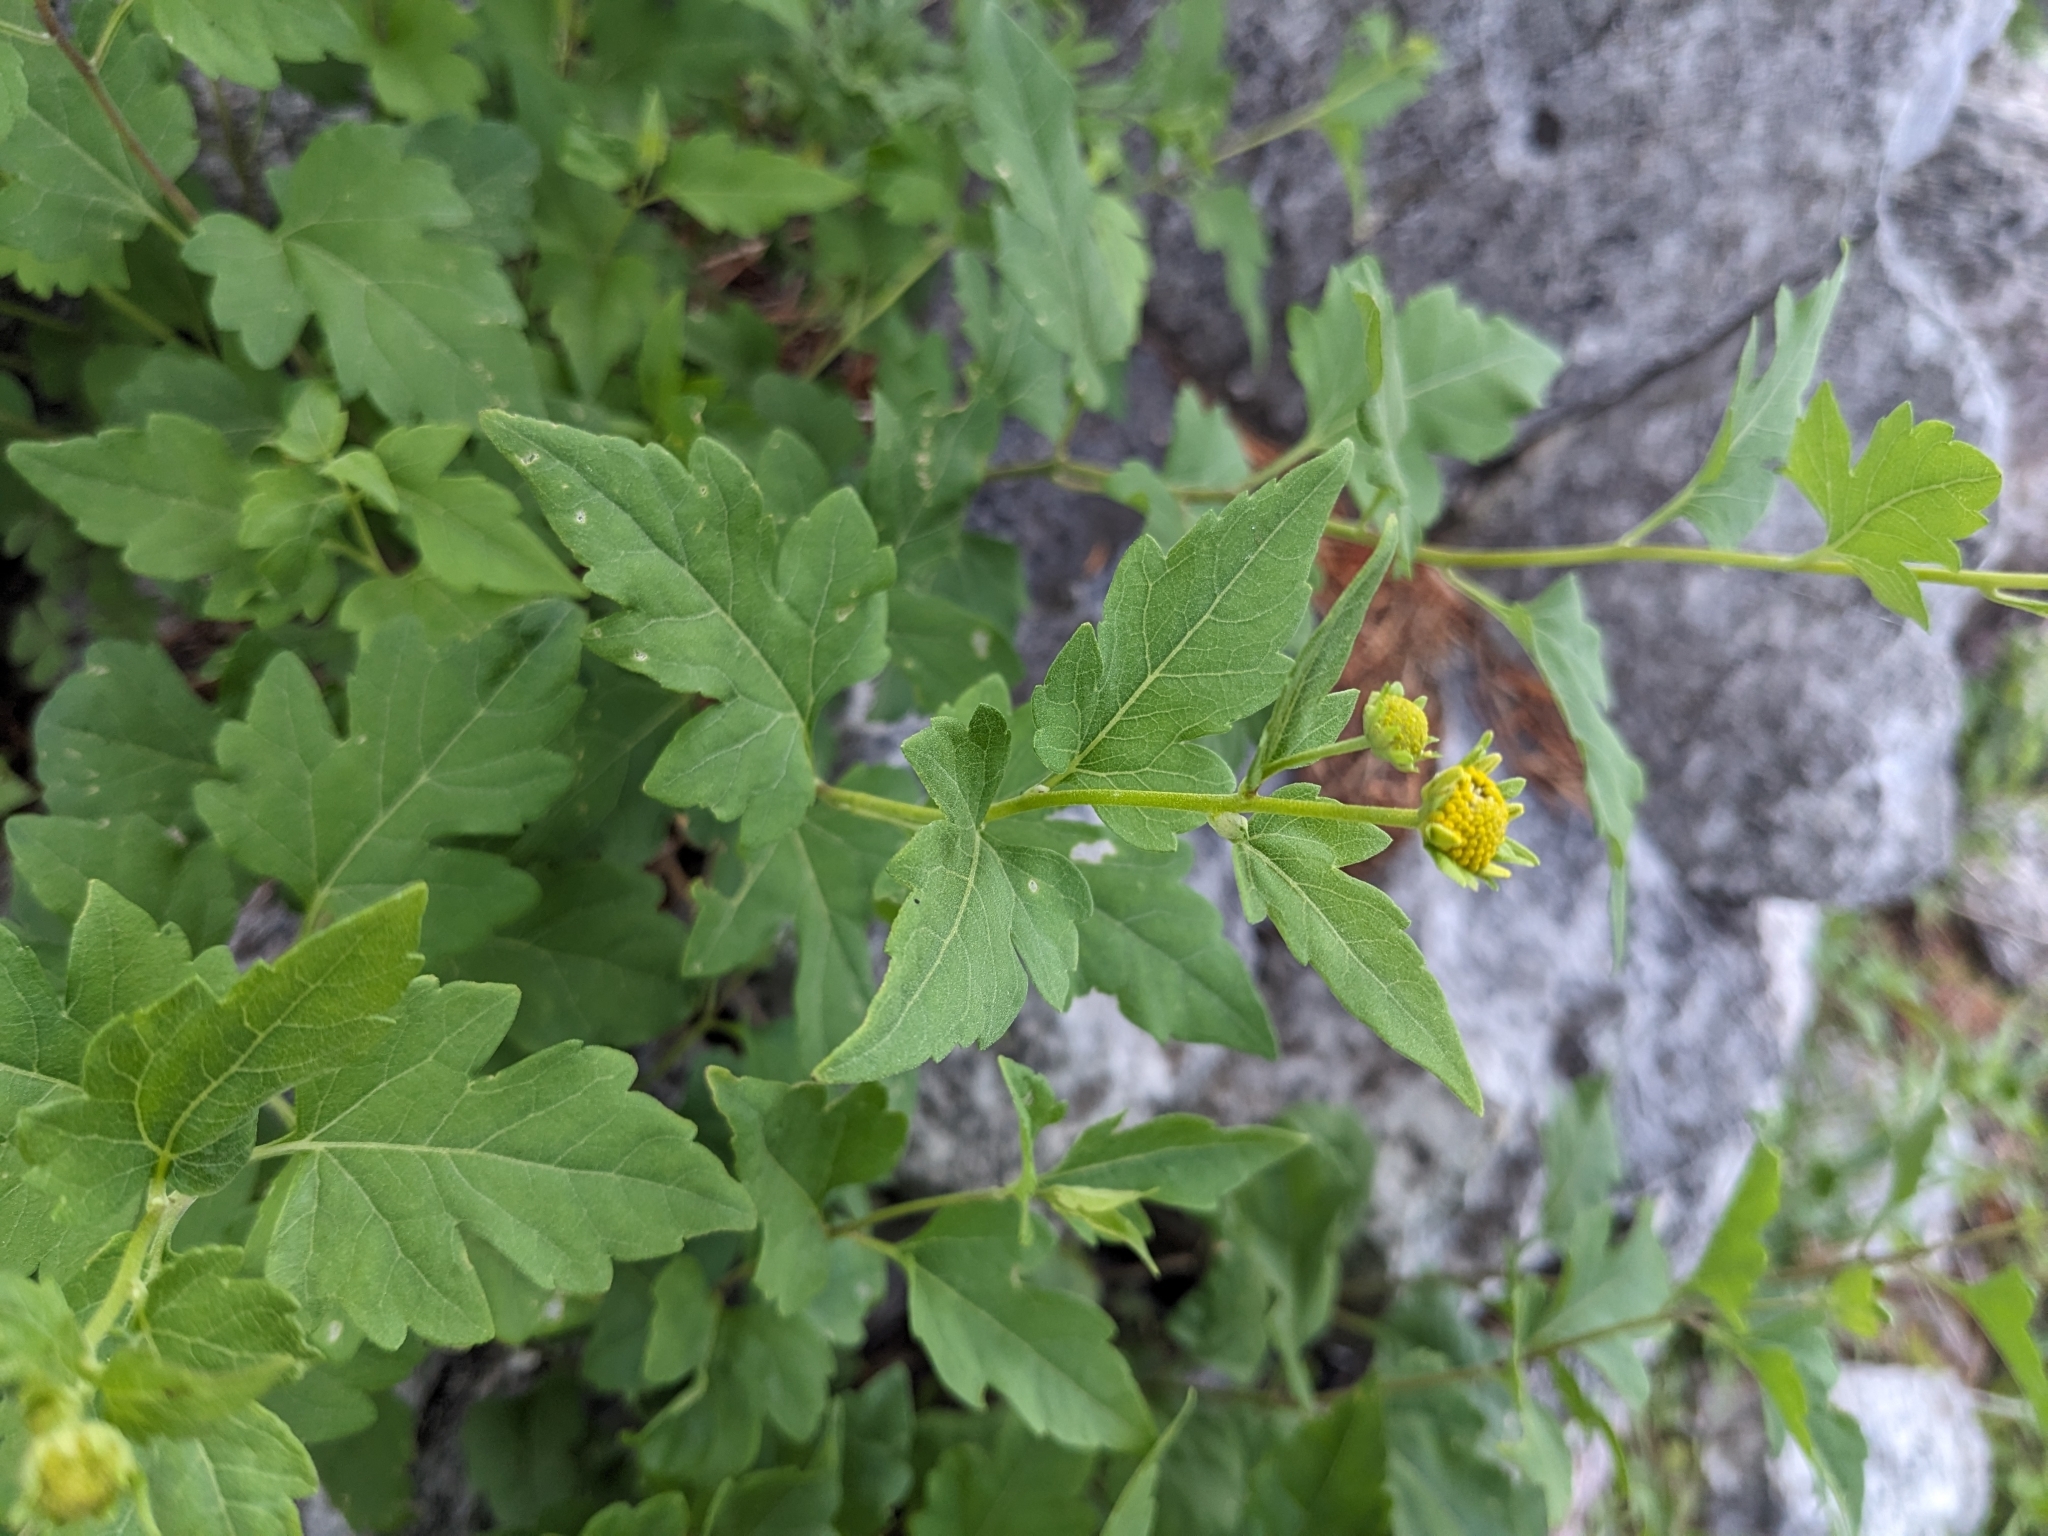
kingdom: Plantae
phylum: Tracheophyta
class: Magnoliopsida
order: Asterales
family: Asteraceae
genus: Zaluzania
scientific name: Zaluzania grayana
